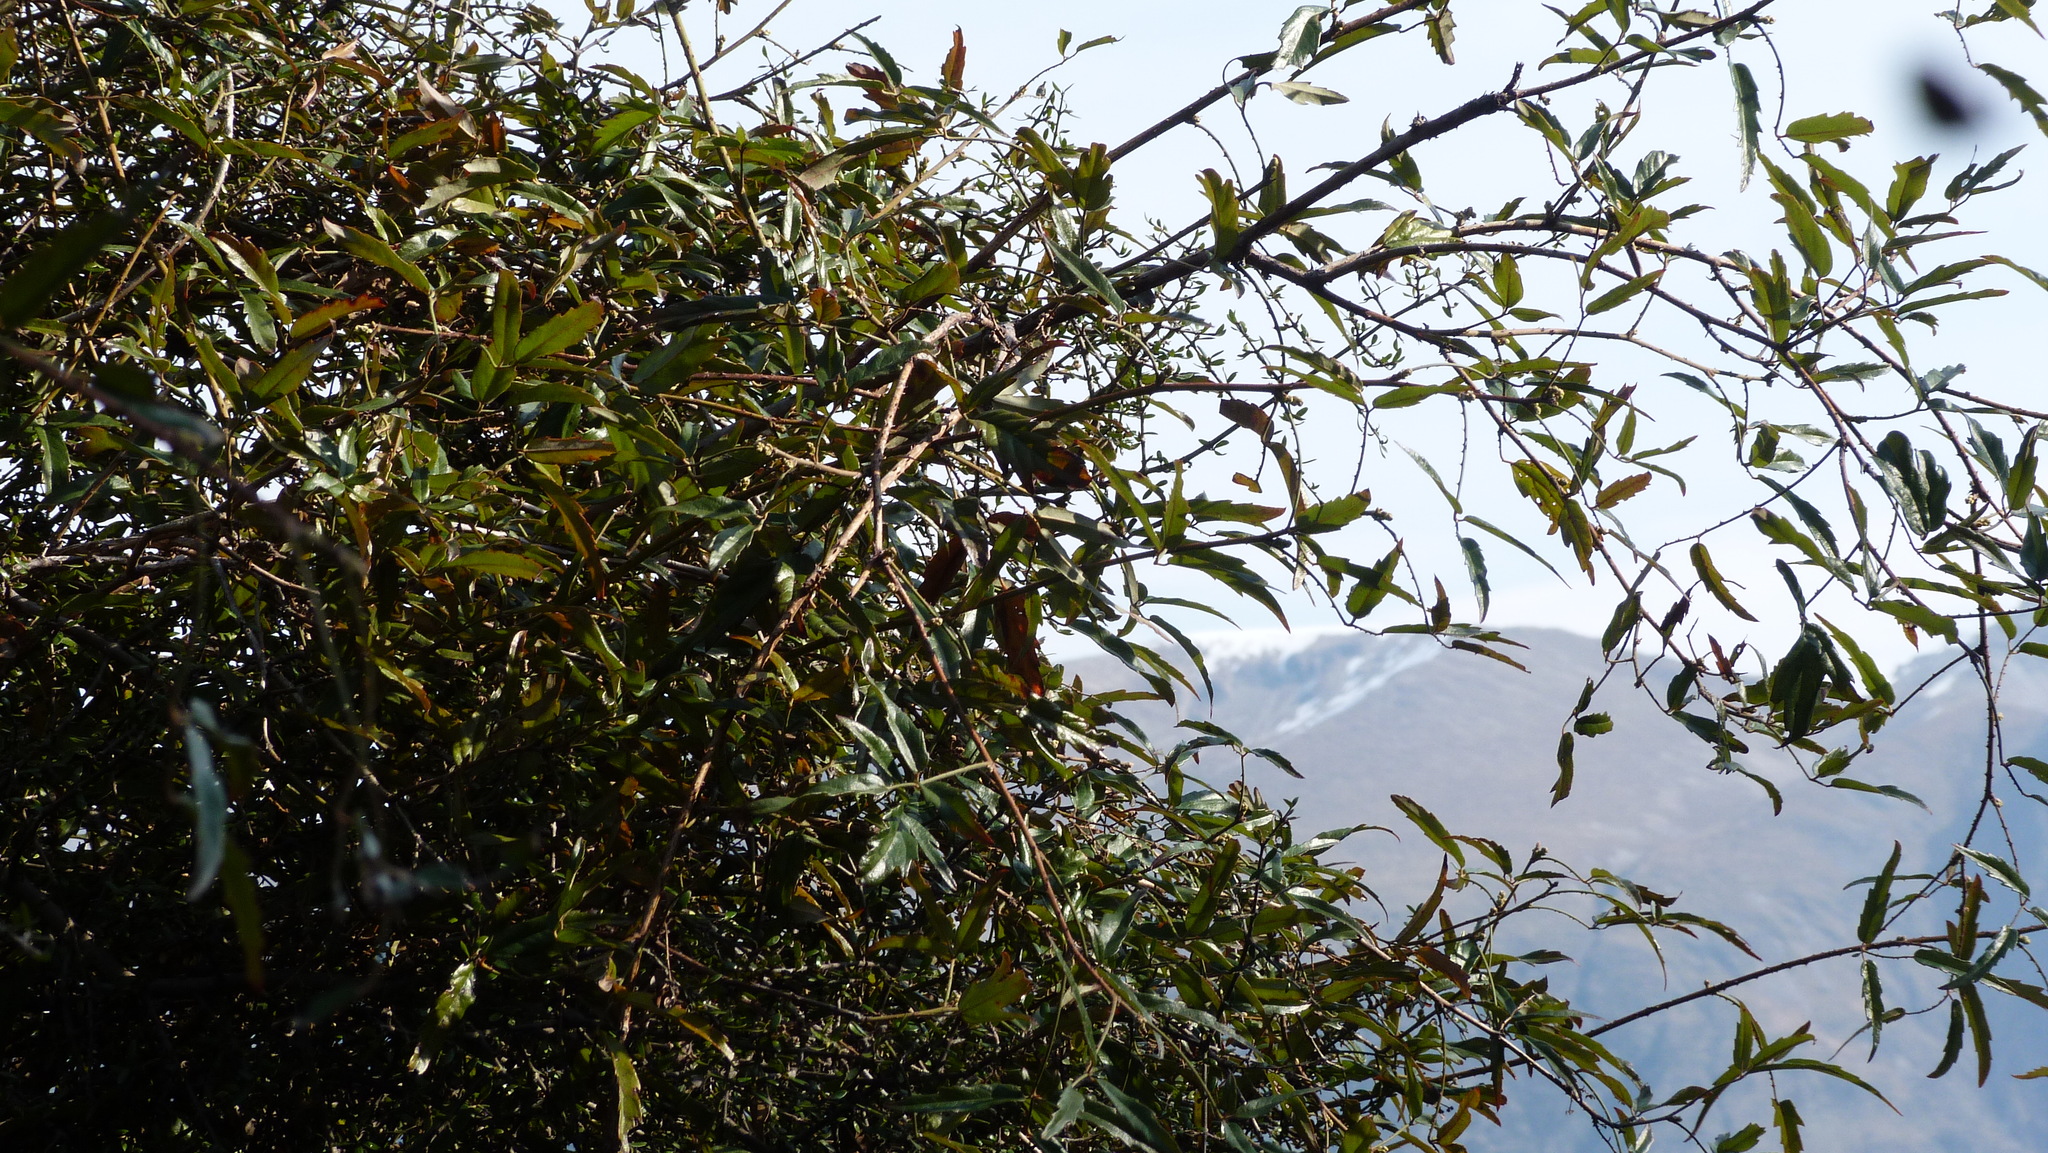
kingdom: Plantae
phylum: Tracheophyta
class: Magnoliopsida
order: Rosales
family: Rosaceae
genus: Rubus
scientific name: Rubus schmidelioides
